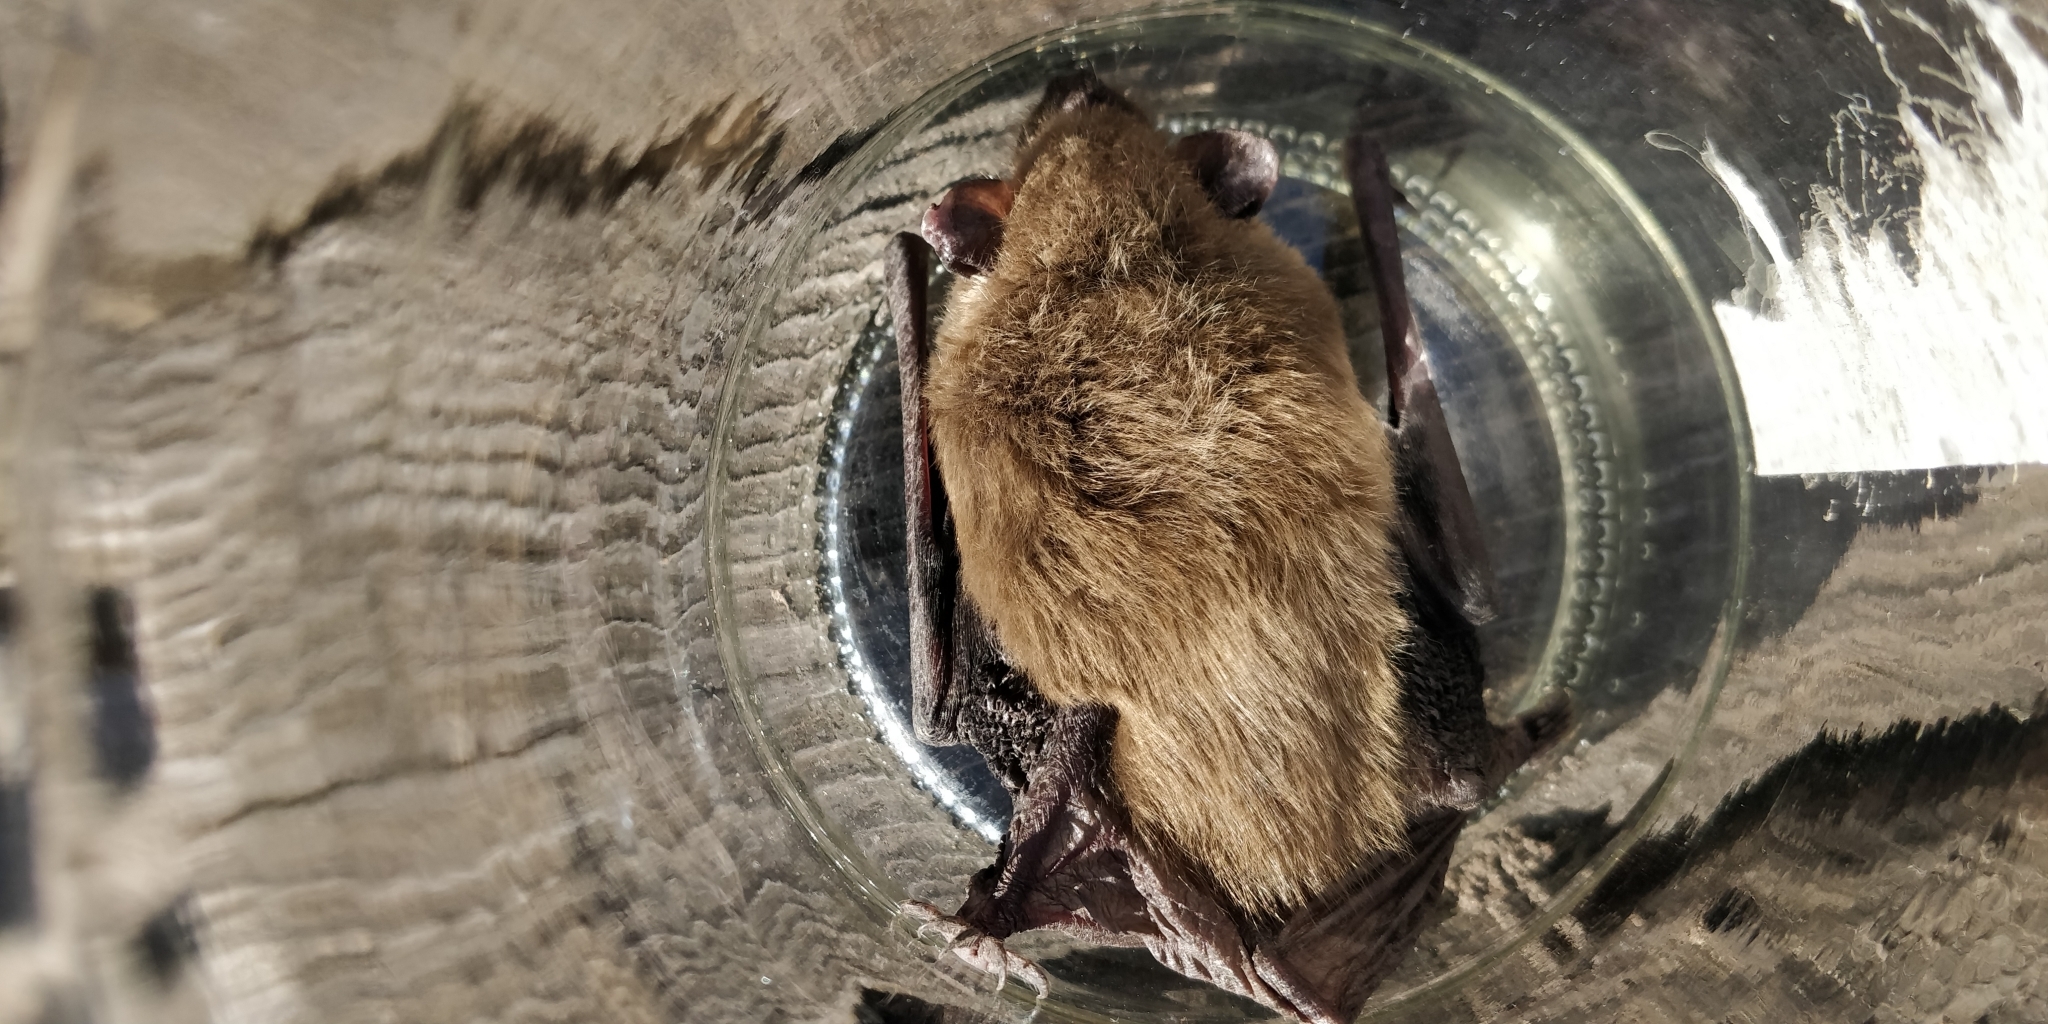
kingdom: Animalia
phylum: Chordata
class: Mammalia
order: Chiroptera
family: Vespertilionidae
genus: Eptesicus
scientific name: Eptesicus fuscus
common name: Big brown bat
